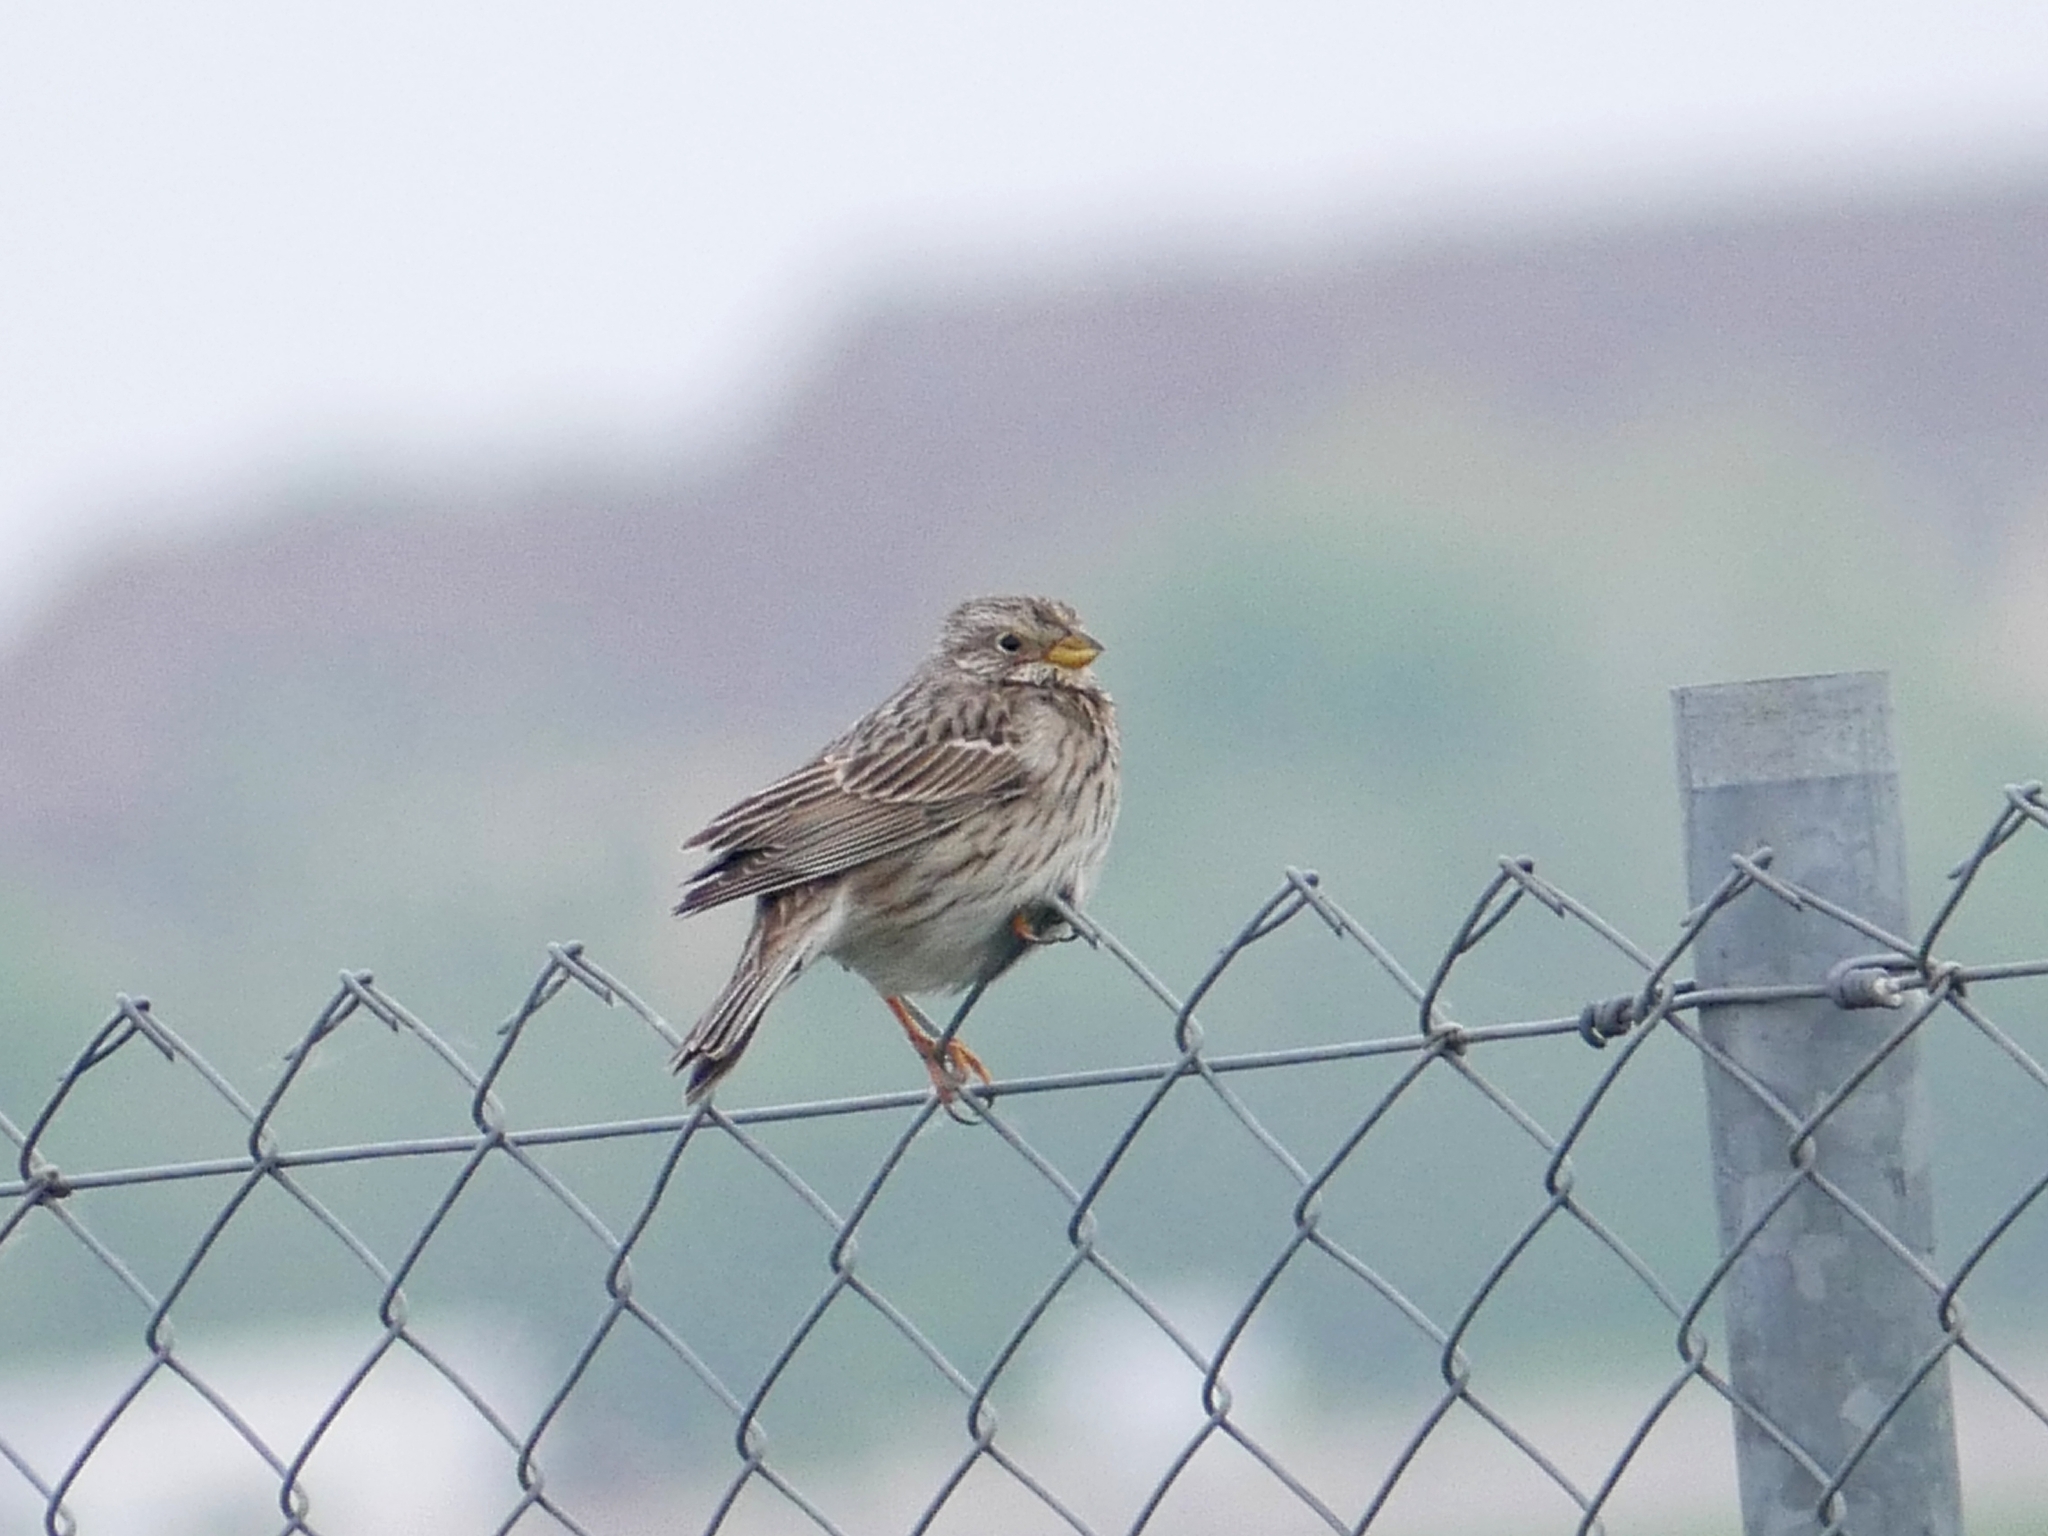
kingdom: Animalia
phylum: Chordata
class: Aves
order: Passeriformes
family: Emberizidae
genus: Emberiza
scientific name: Emberiza calandra
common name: Corn bunting
